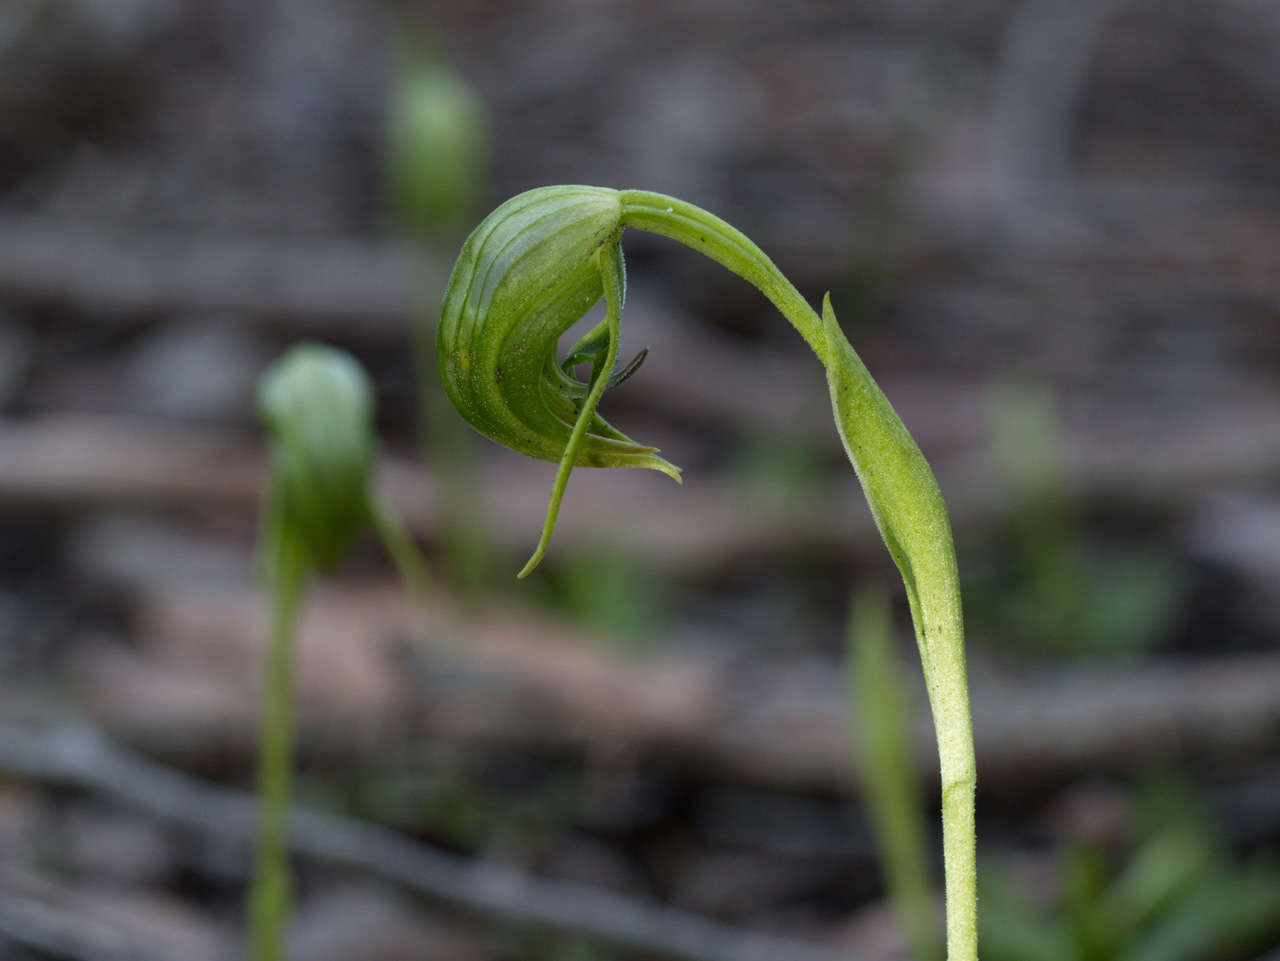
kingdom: Plantae
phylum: Tracheophyta
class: Liliopsida
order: Asparagales
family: Orchidaceae
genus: Pterostylis
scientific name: Pterostylis nutans
